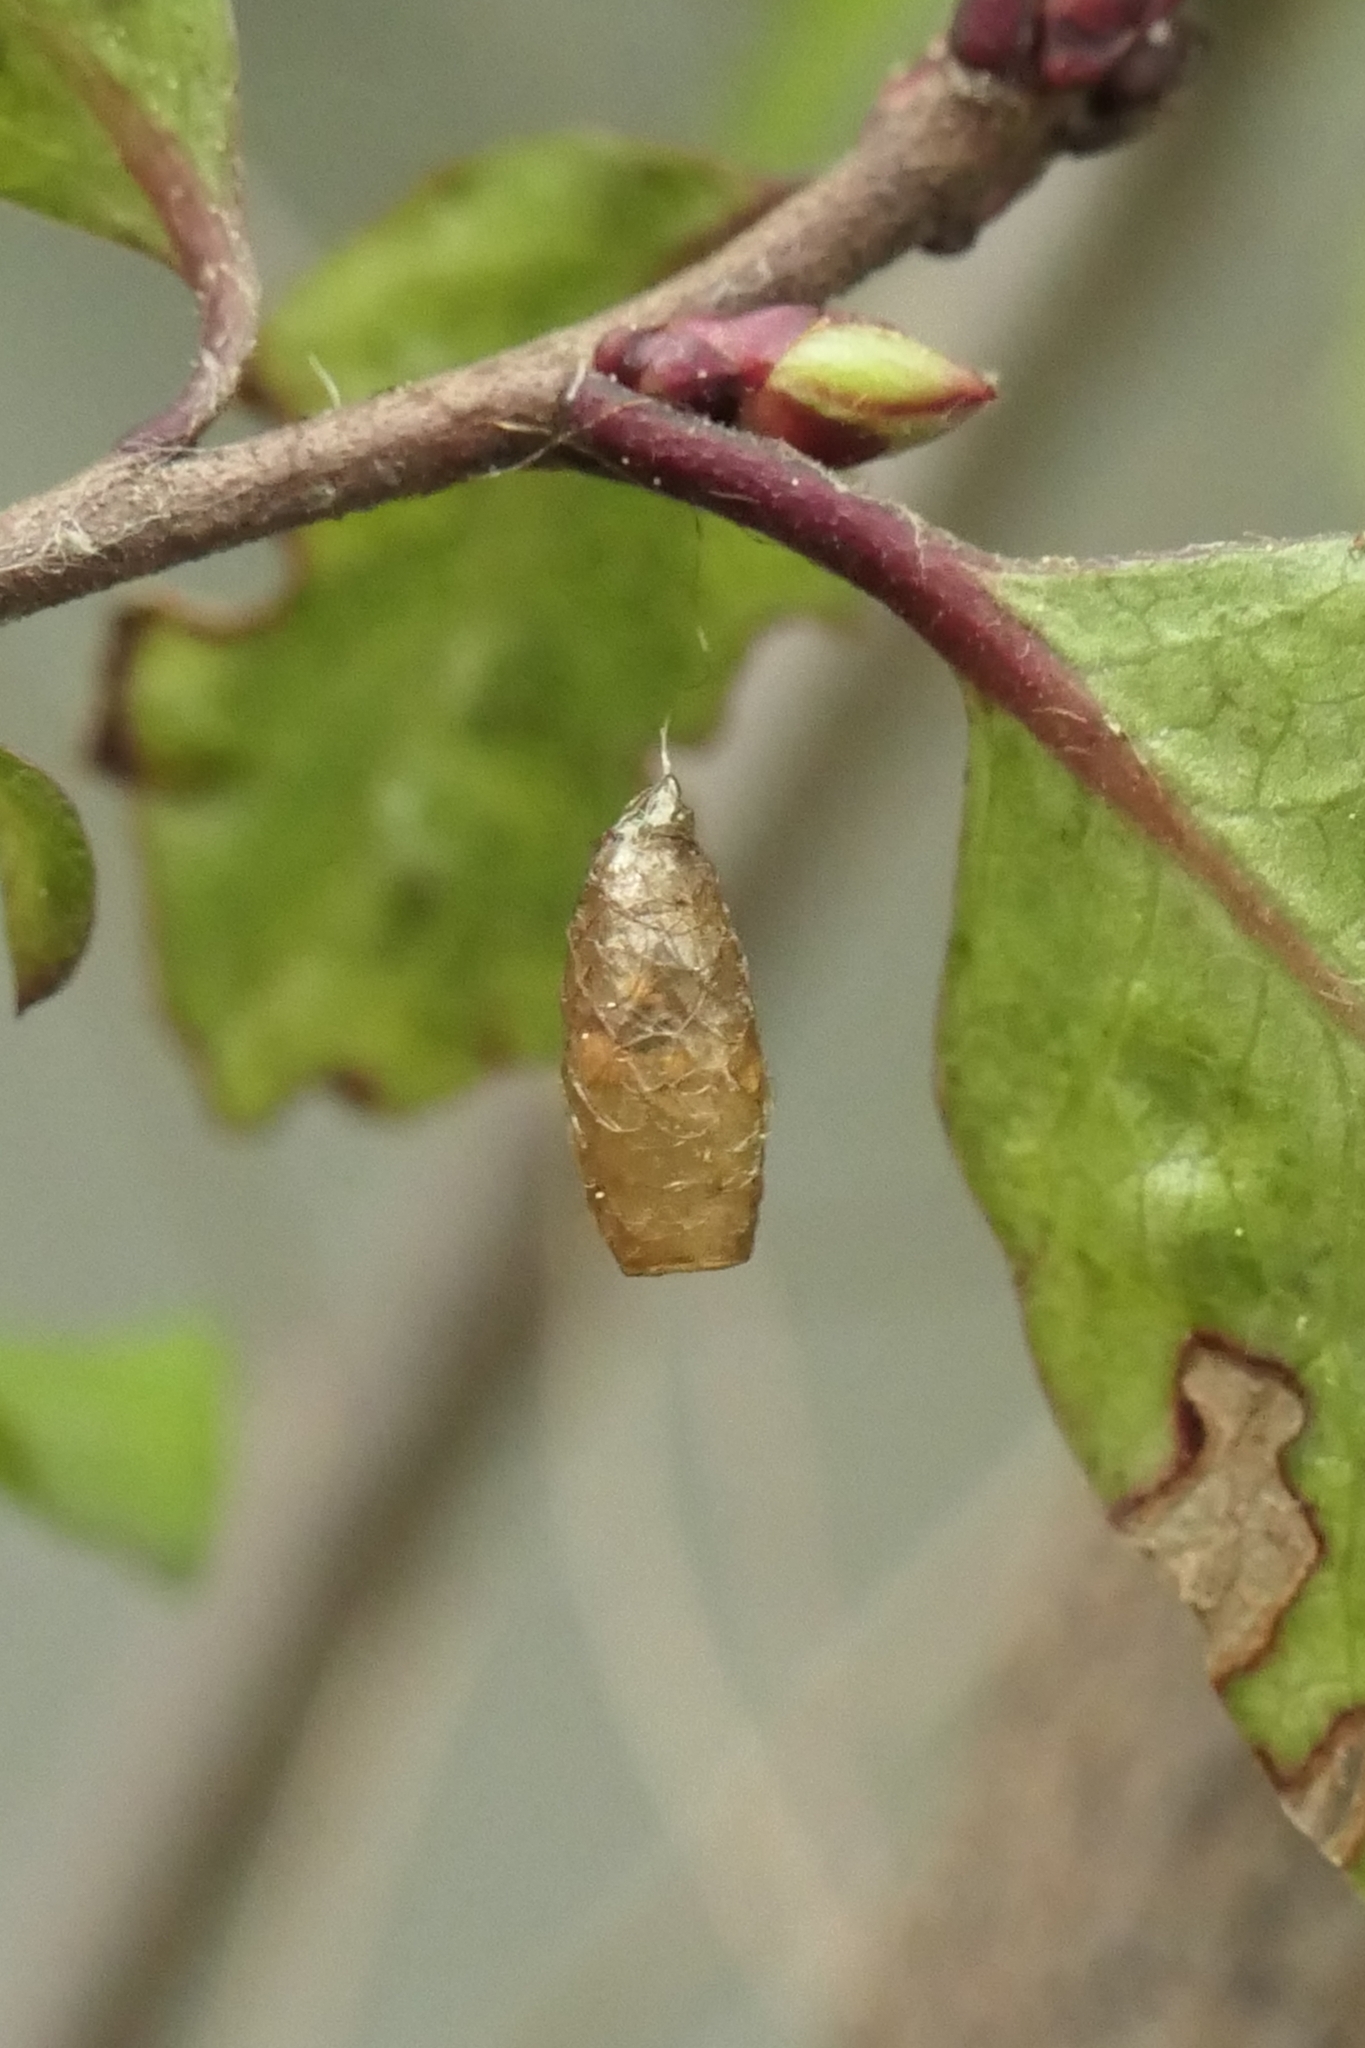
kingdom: Animalia
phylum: Arthropoda
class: Insecta
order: Hymenoptera
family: Braconidae
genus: Meteorus
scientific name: Meteorus pulchricornis
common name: Braconid wasp
